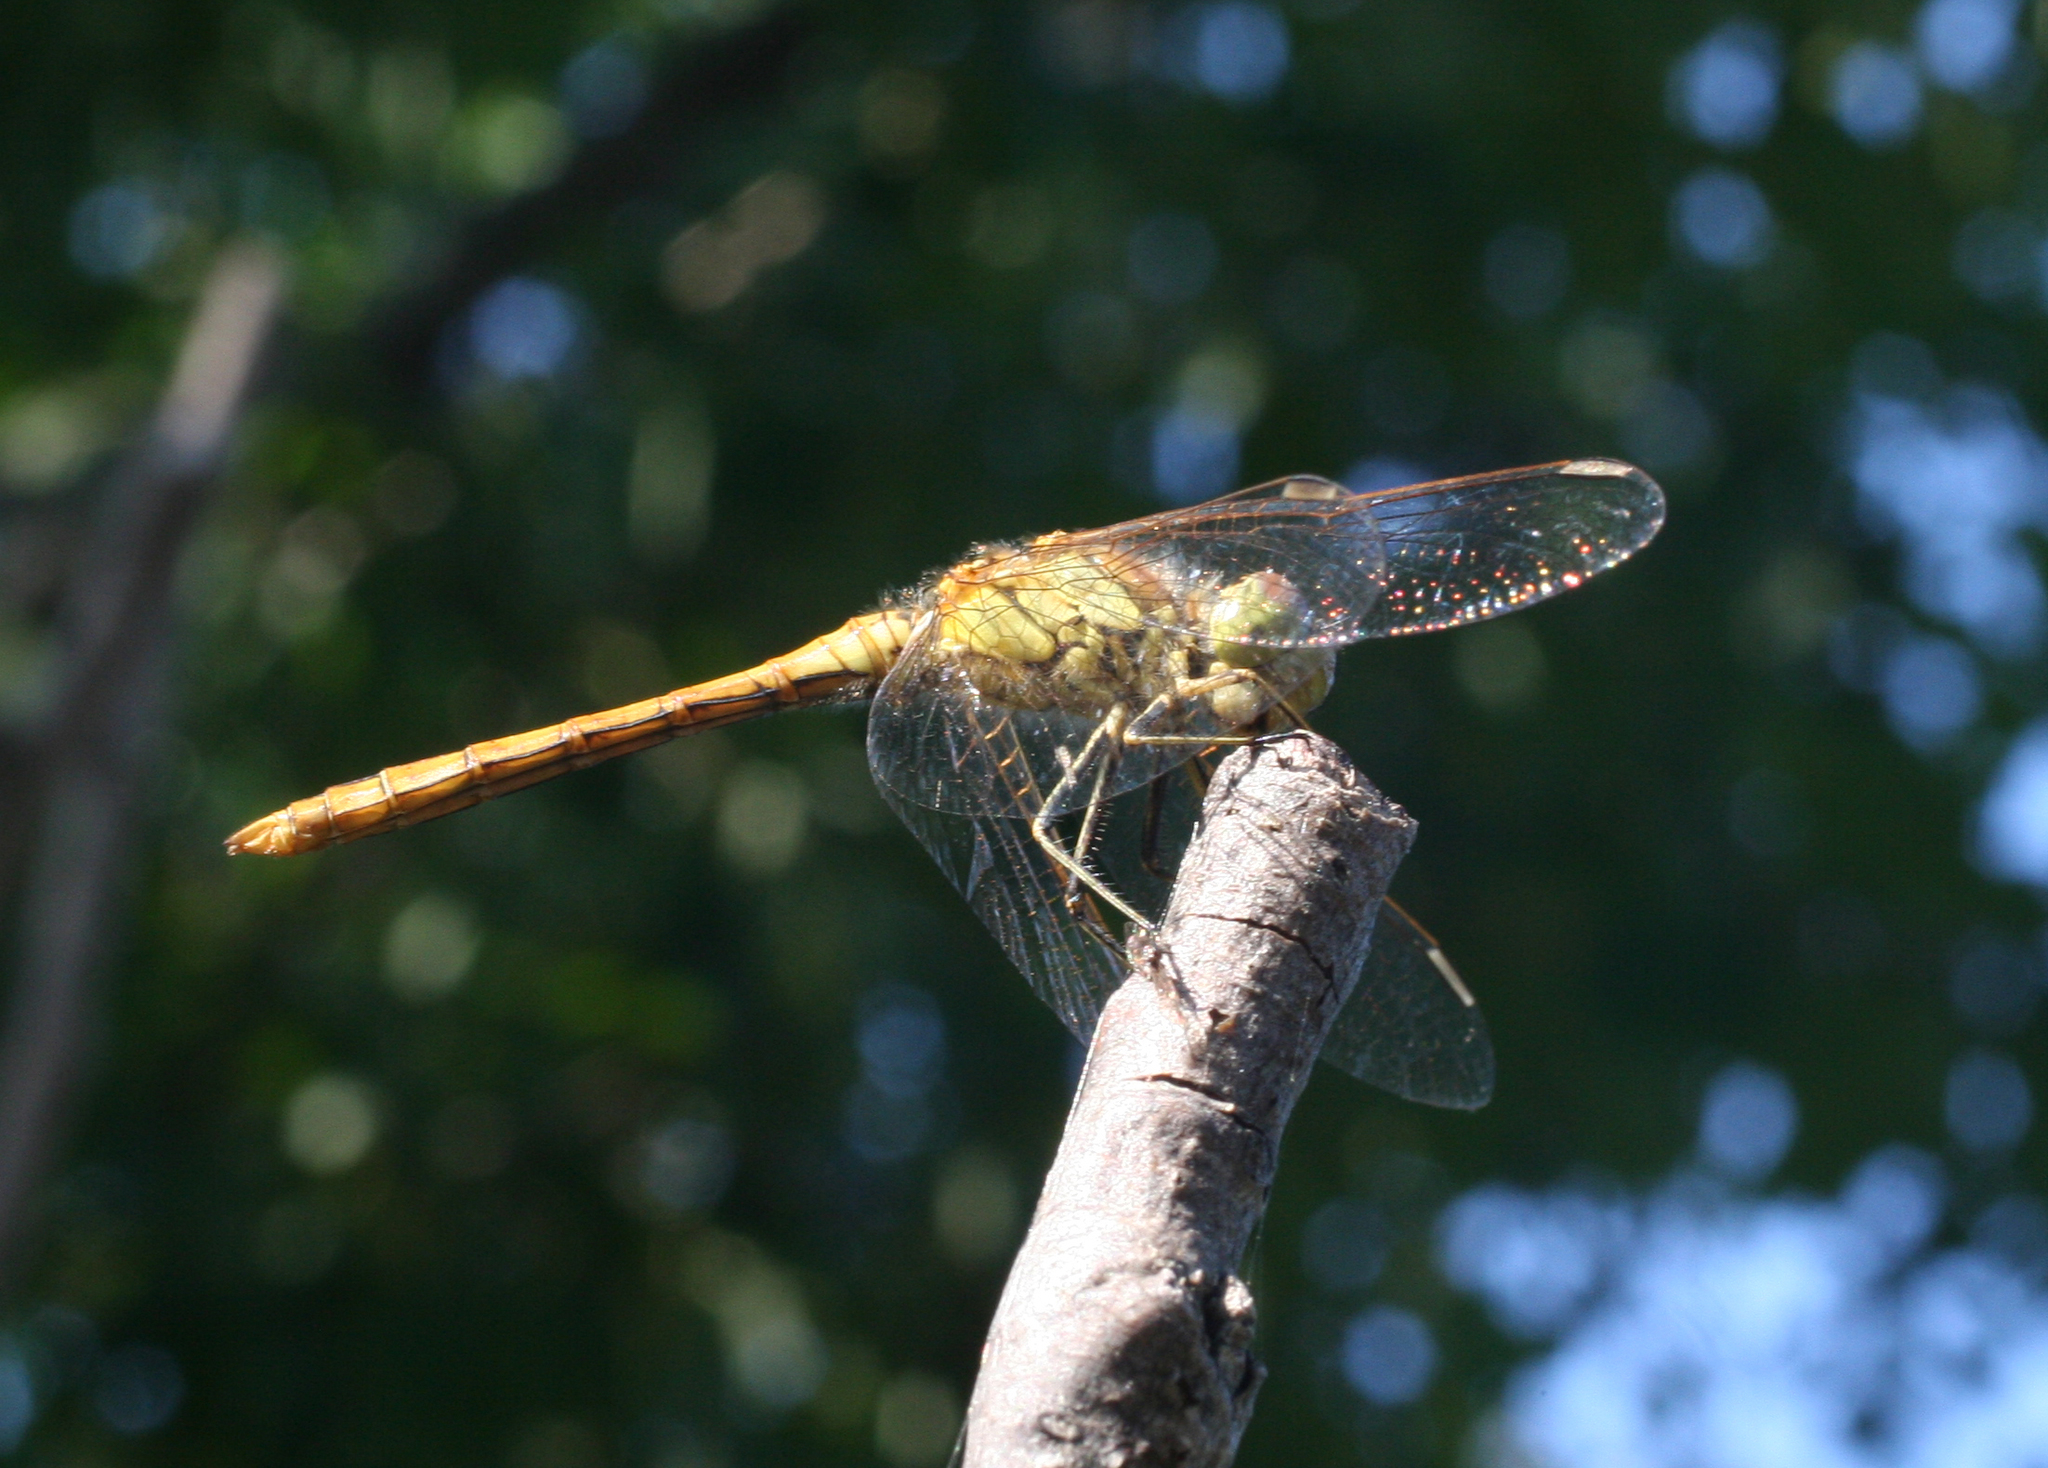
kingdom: Animalia
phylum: Arthropoda
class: Insecta
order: Odonata
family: Libellulidae
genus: Sympetrum
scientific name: Sympetrum vulgatum
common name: Vagrant darter
